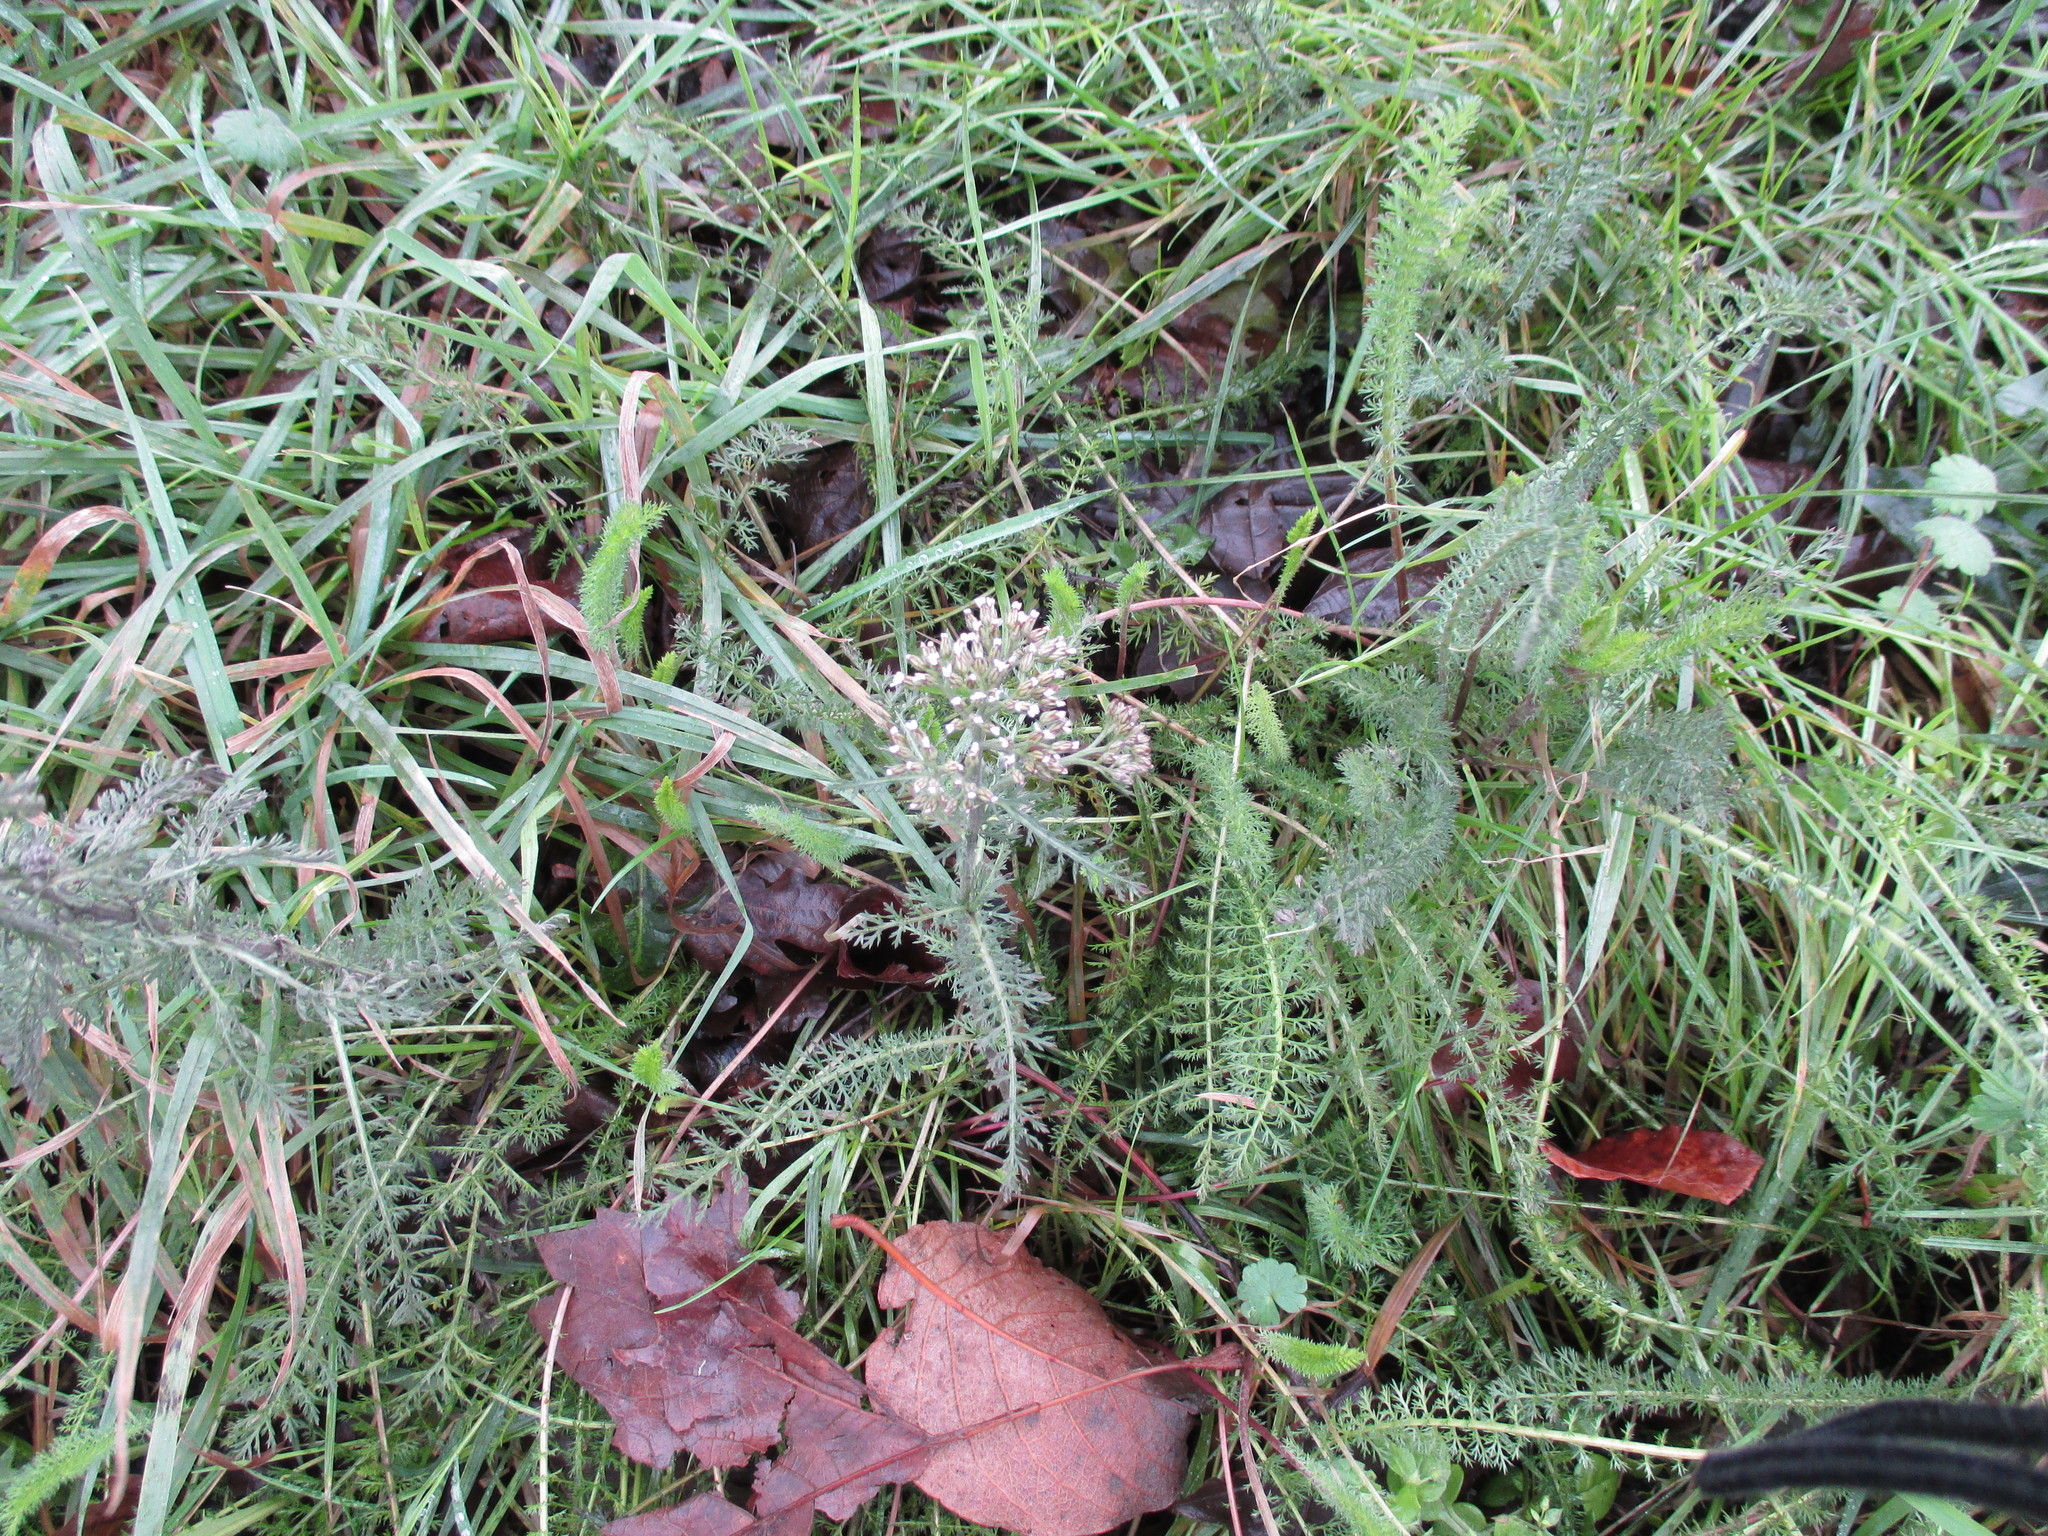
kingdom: Plantae
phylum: Tracheophyta
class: Magnoliopsida
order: Asterales
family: Asteraceae
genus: Achillea
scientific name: Achillea millefolium
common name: Yarrow
